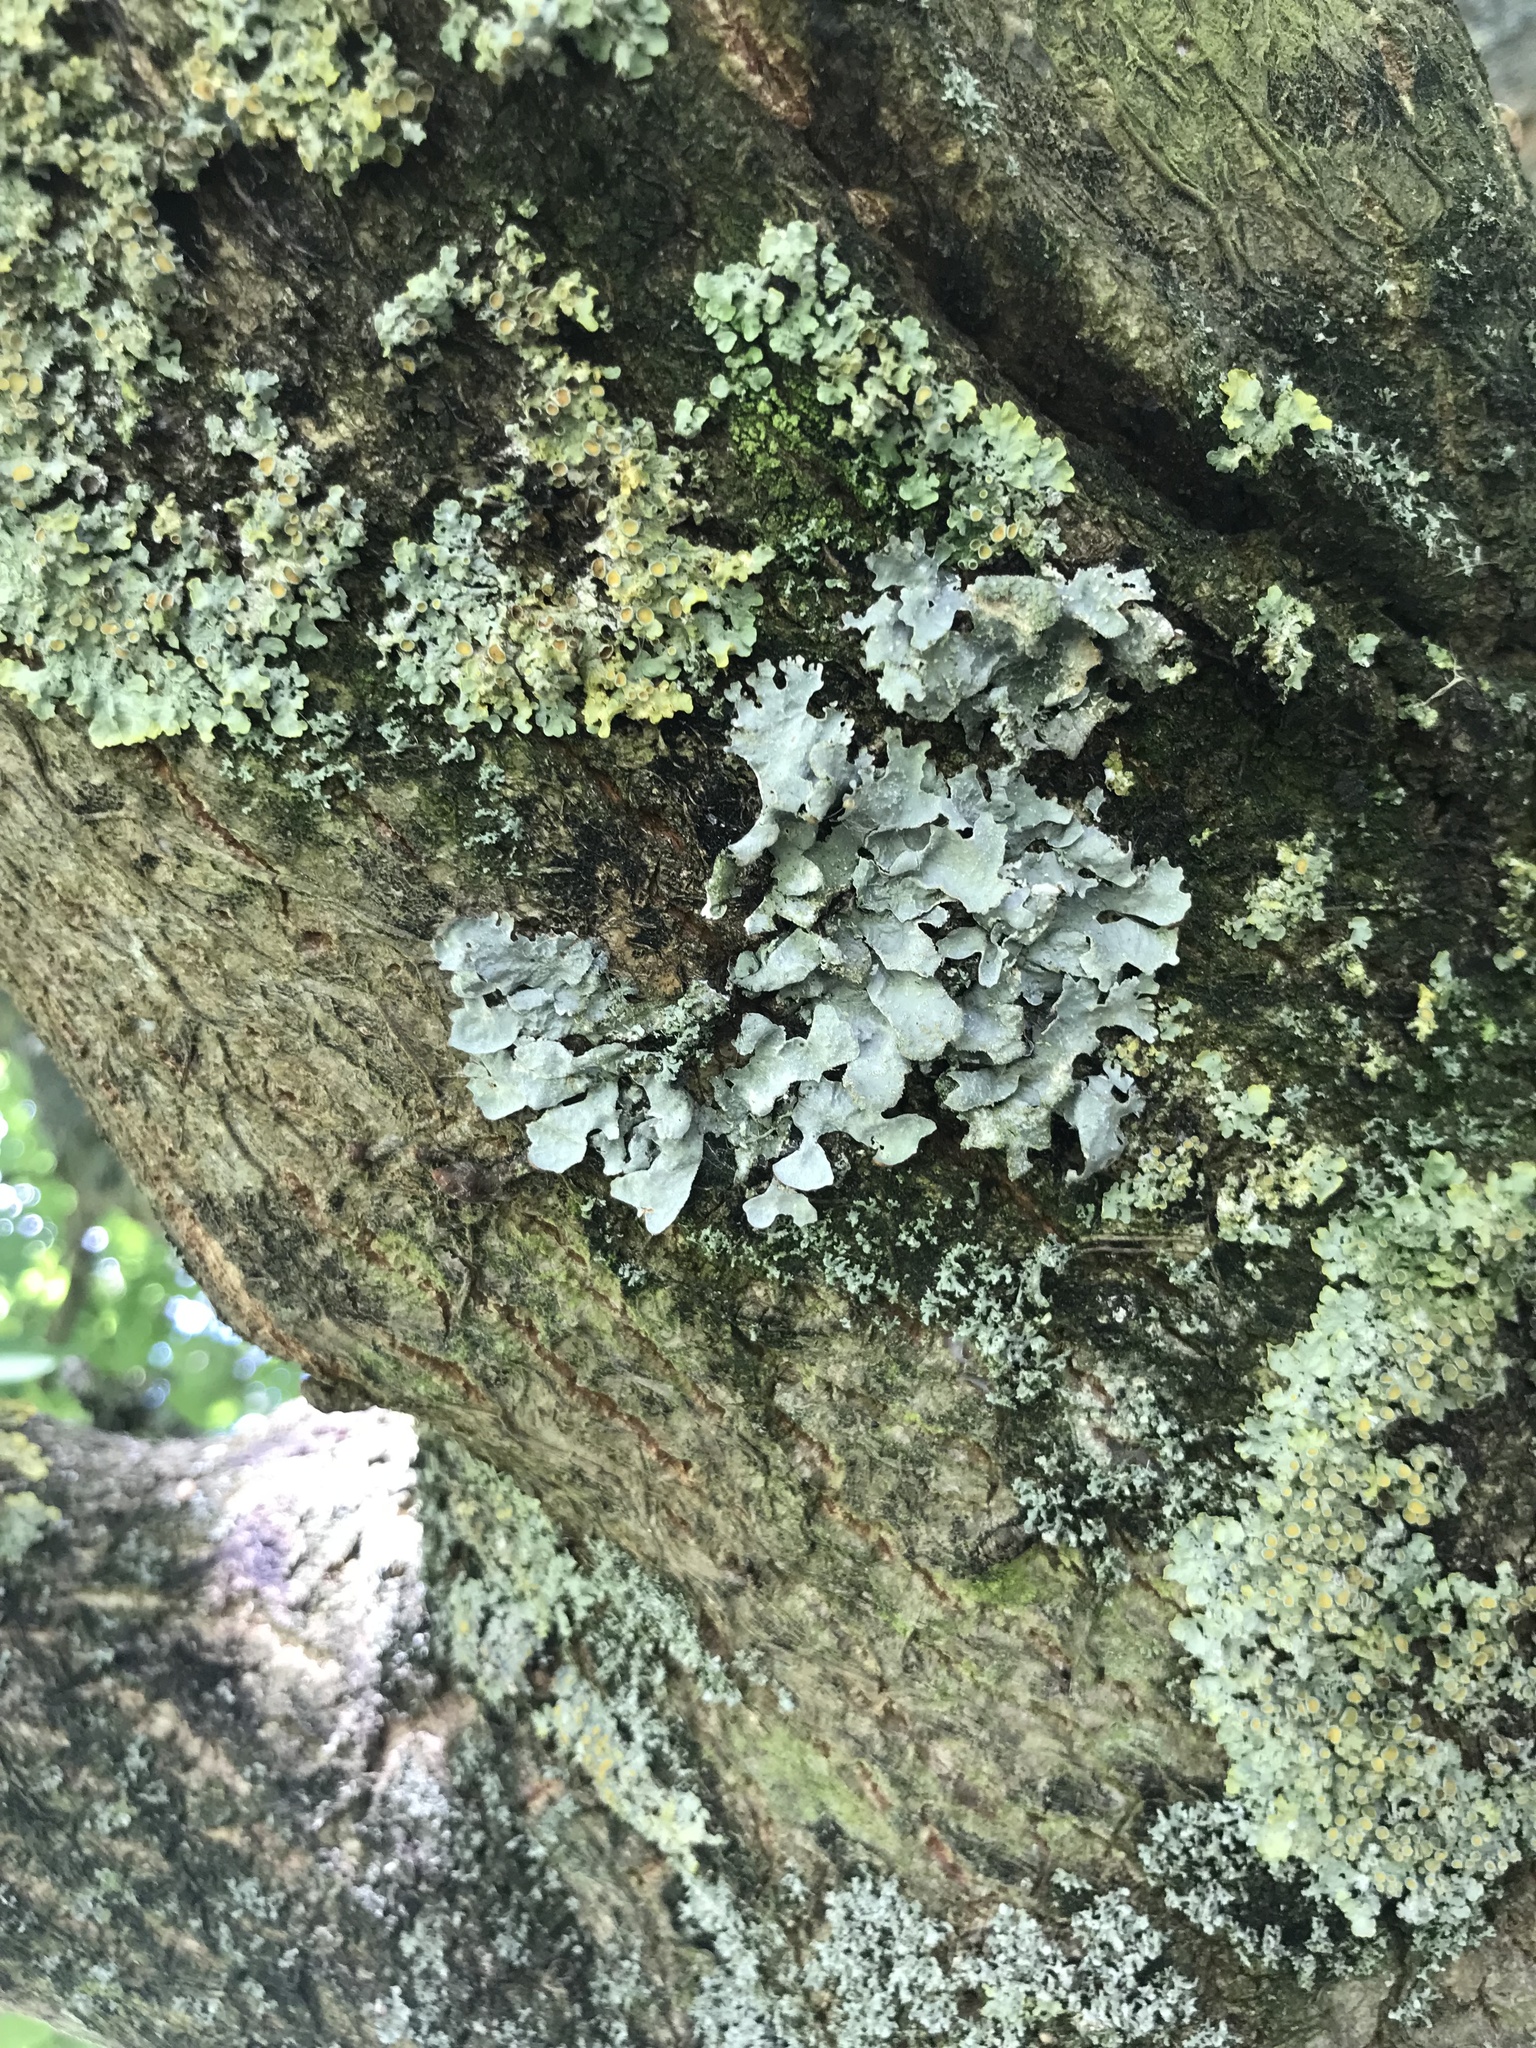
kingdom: Fungi
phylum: Ascomycota
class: Lecanoromycetes
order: Lecanorales
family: Parmeliaceae
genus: Parmelia
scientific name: Parmelia sulcata
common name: Netted shield lichen
